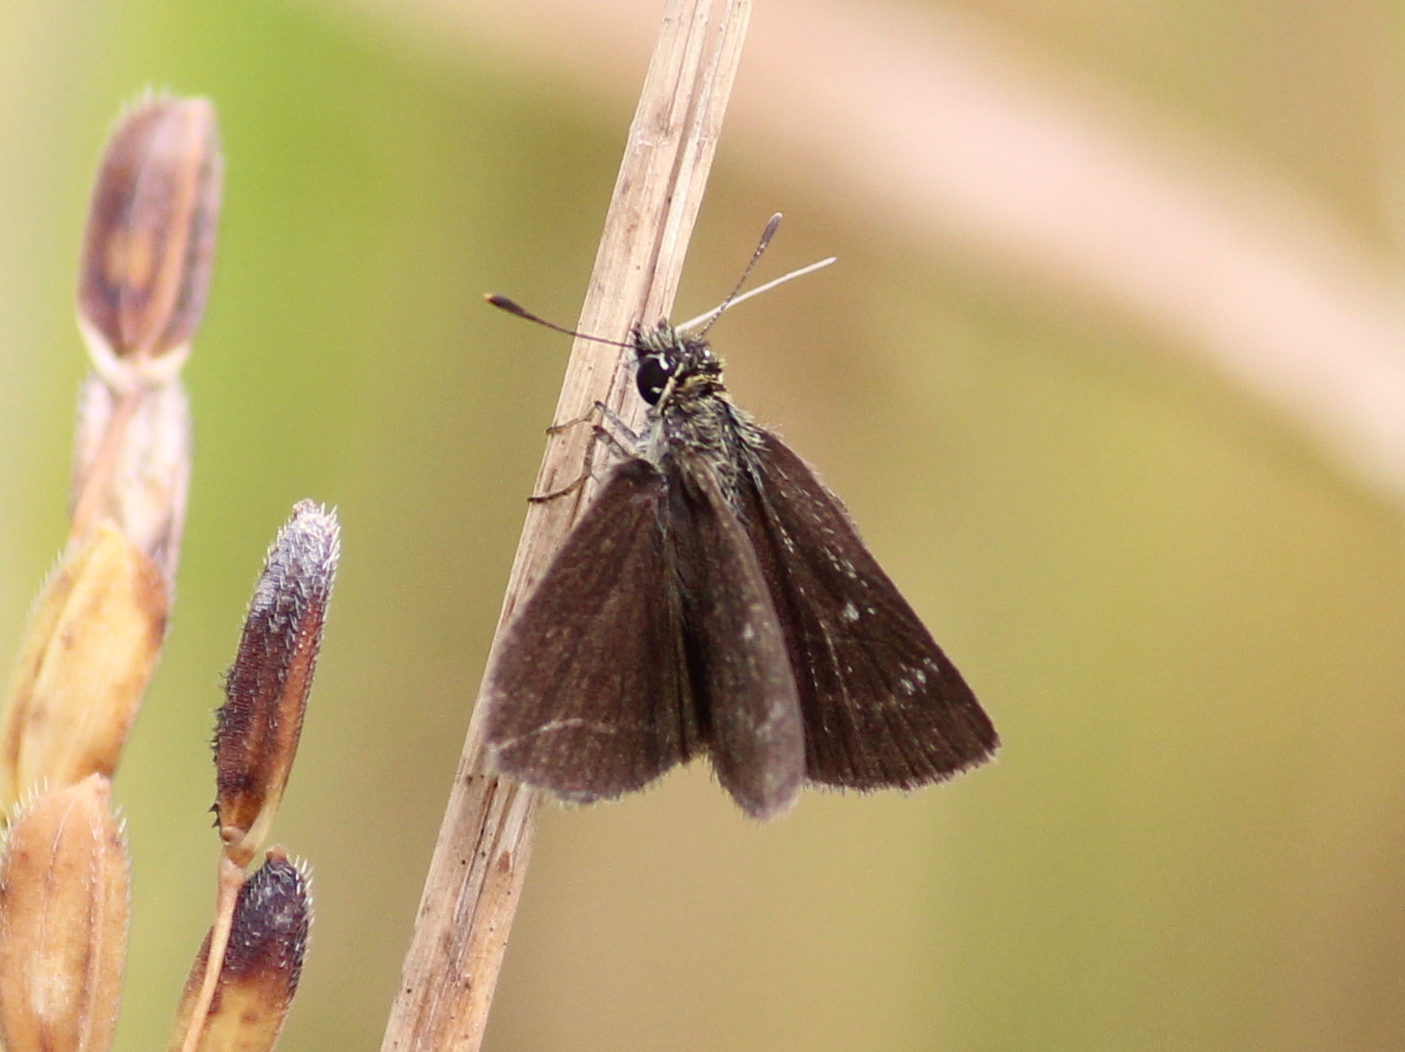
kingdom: Animalia
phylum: Arthropoda
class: Insecta
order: Lepidoptera
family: Hesperiidae
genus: Aeromachus
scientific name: Aeromachus pygmaeus
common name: Pygmy scrub hopper
